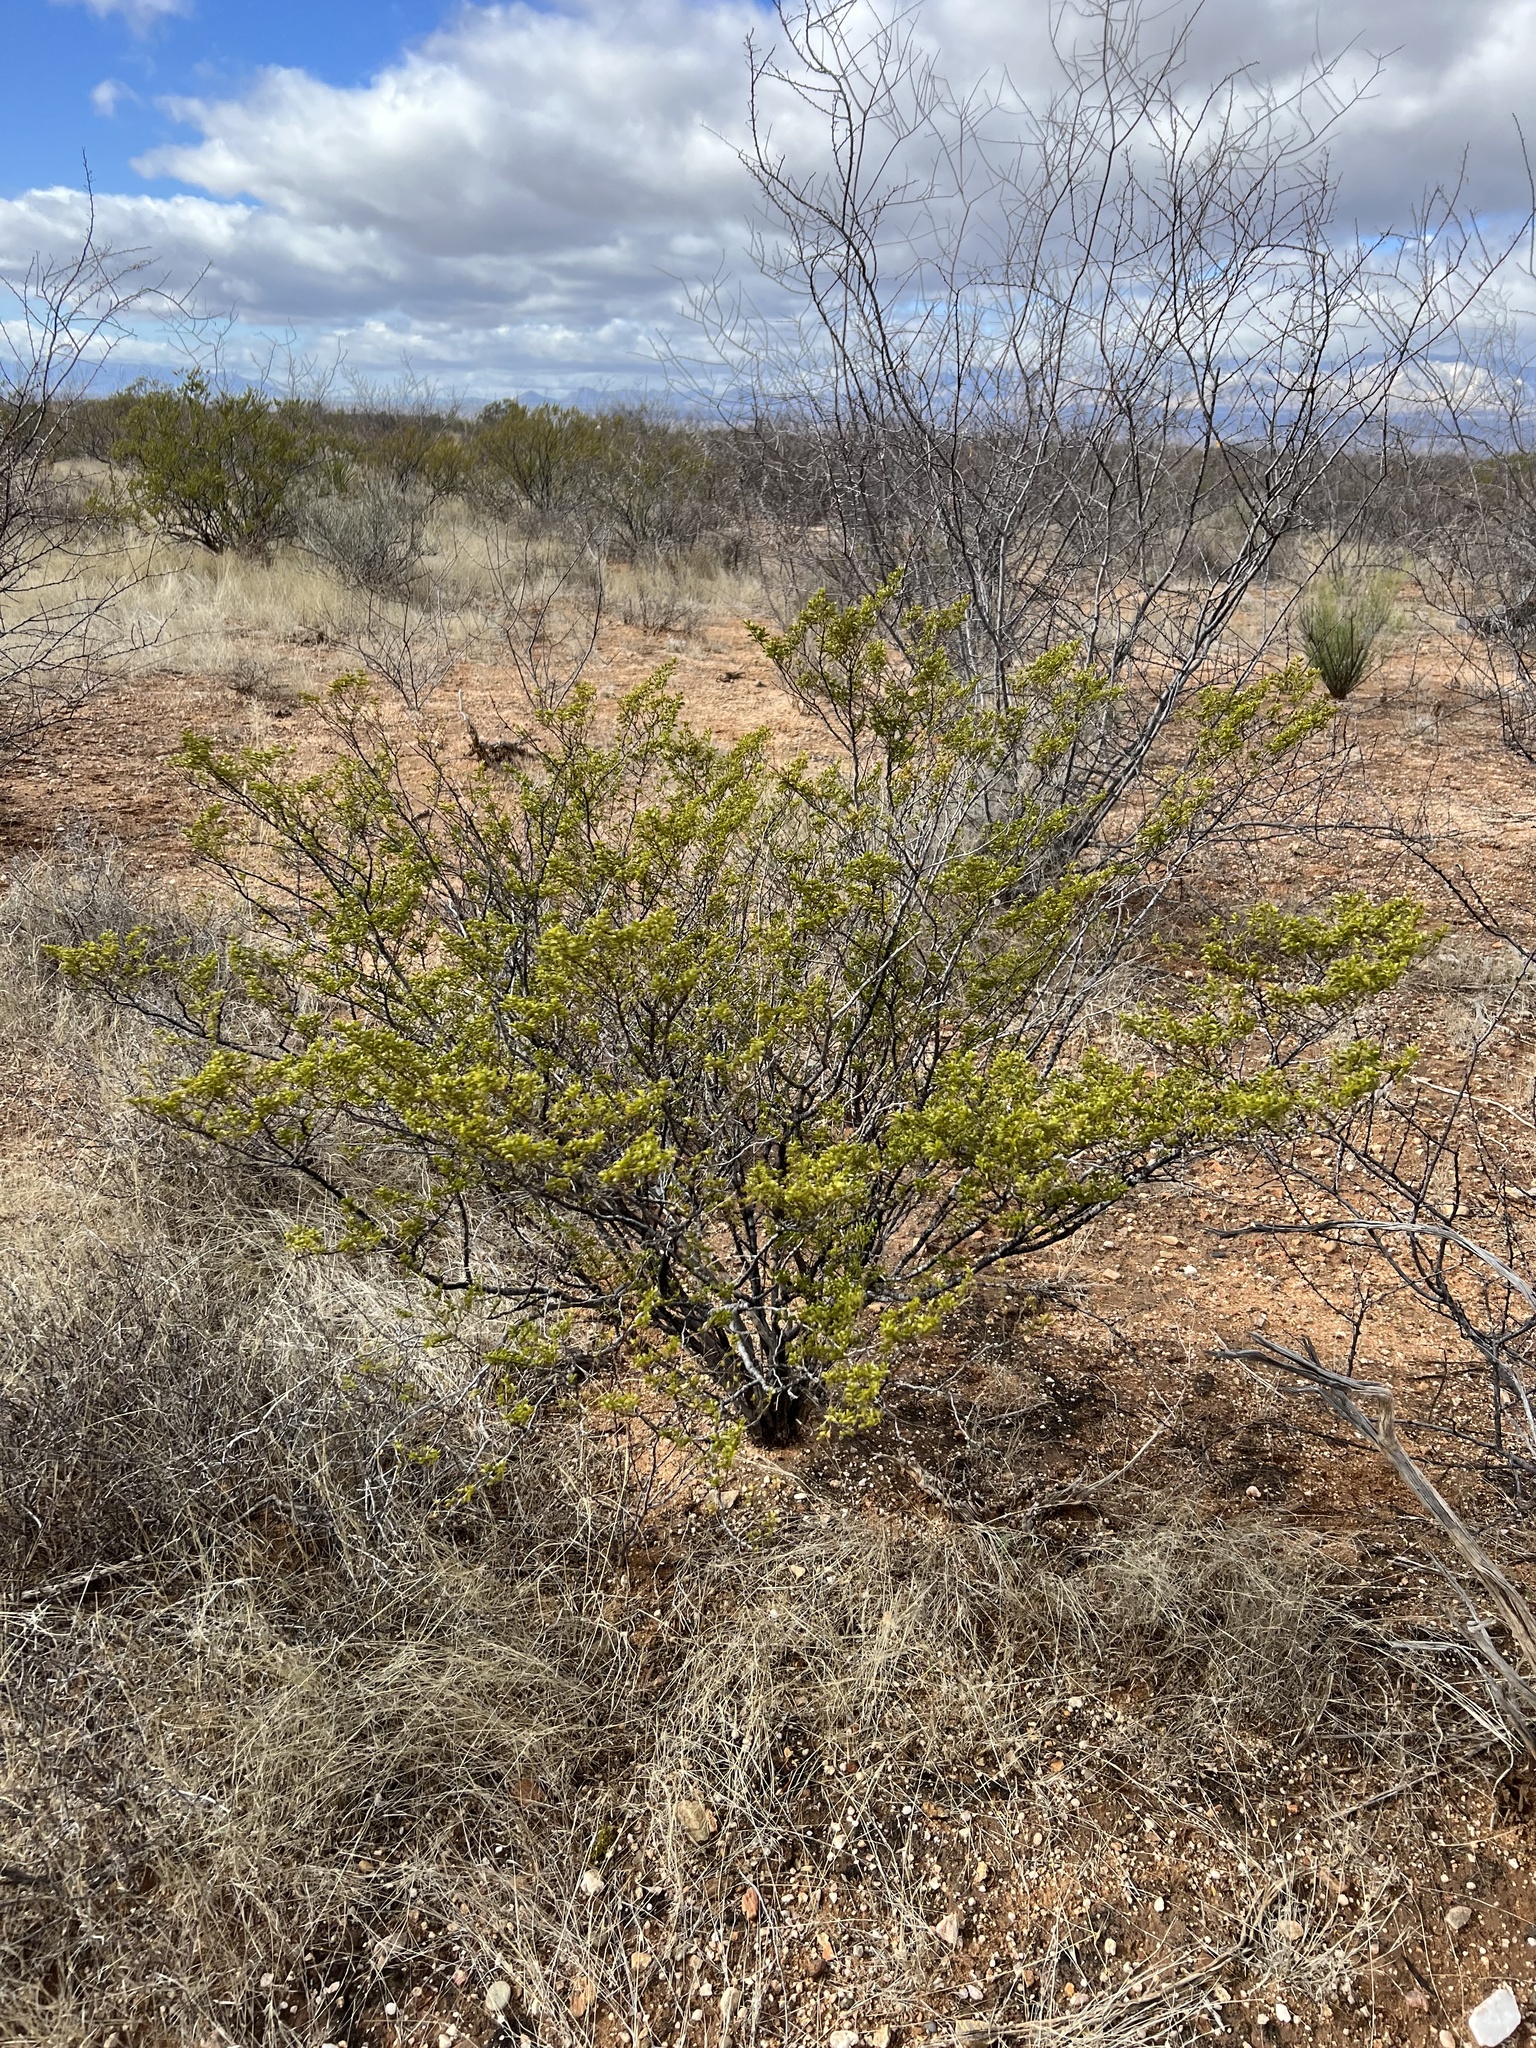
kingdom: Plantae
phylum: Tracheophyta
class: Magnoliopsida
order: Zygophyllales
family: Zygophyllaceae
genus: Larrea
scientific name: Larrea tridentata
